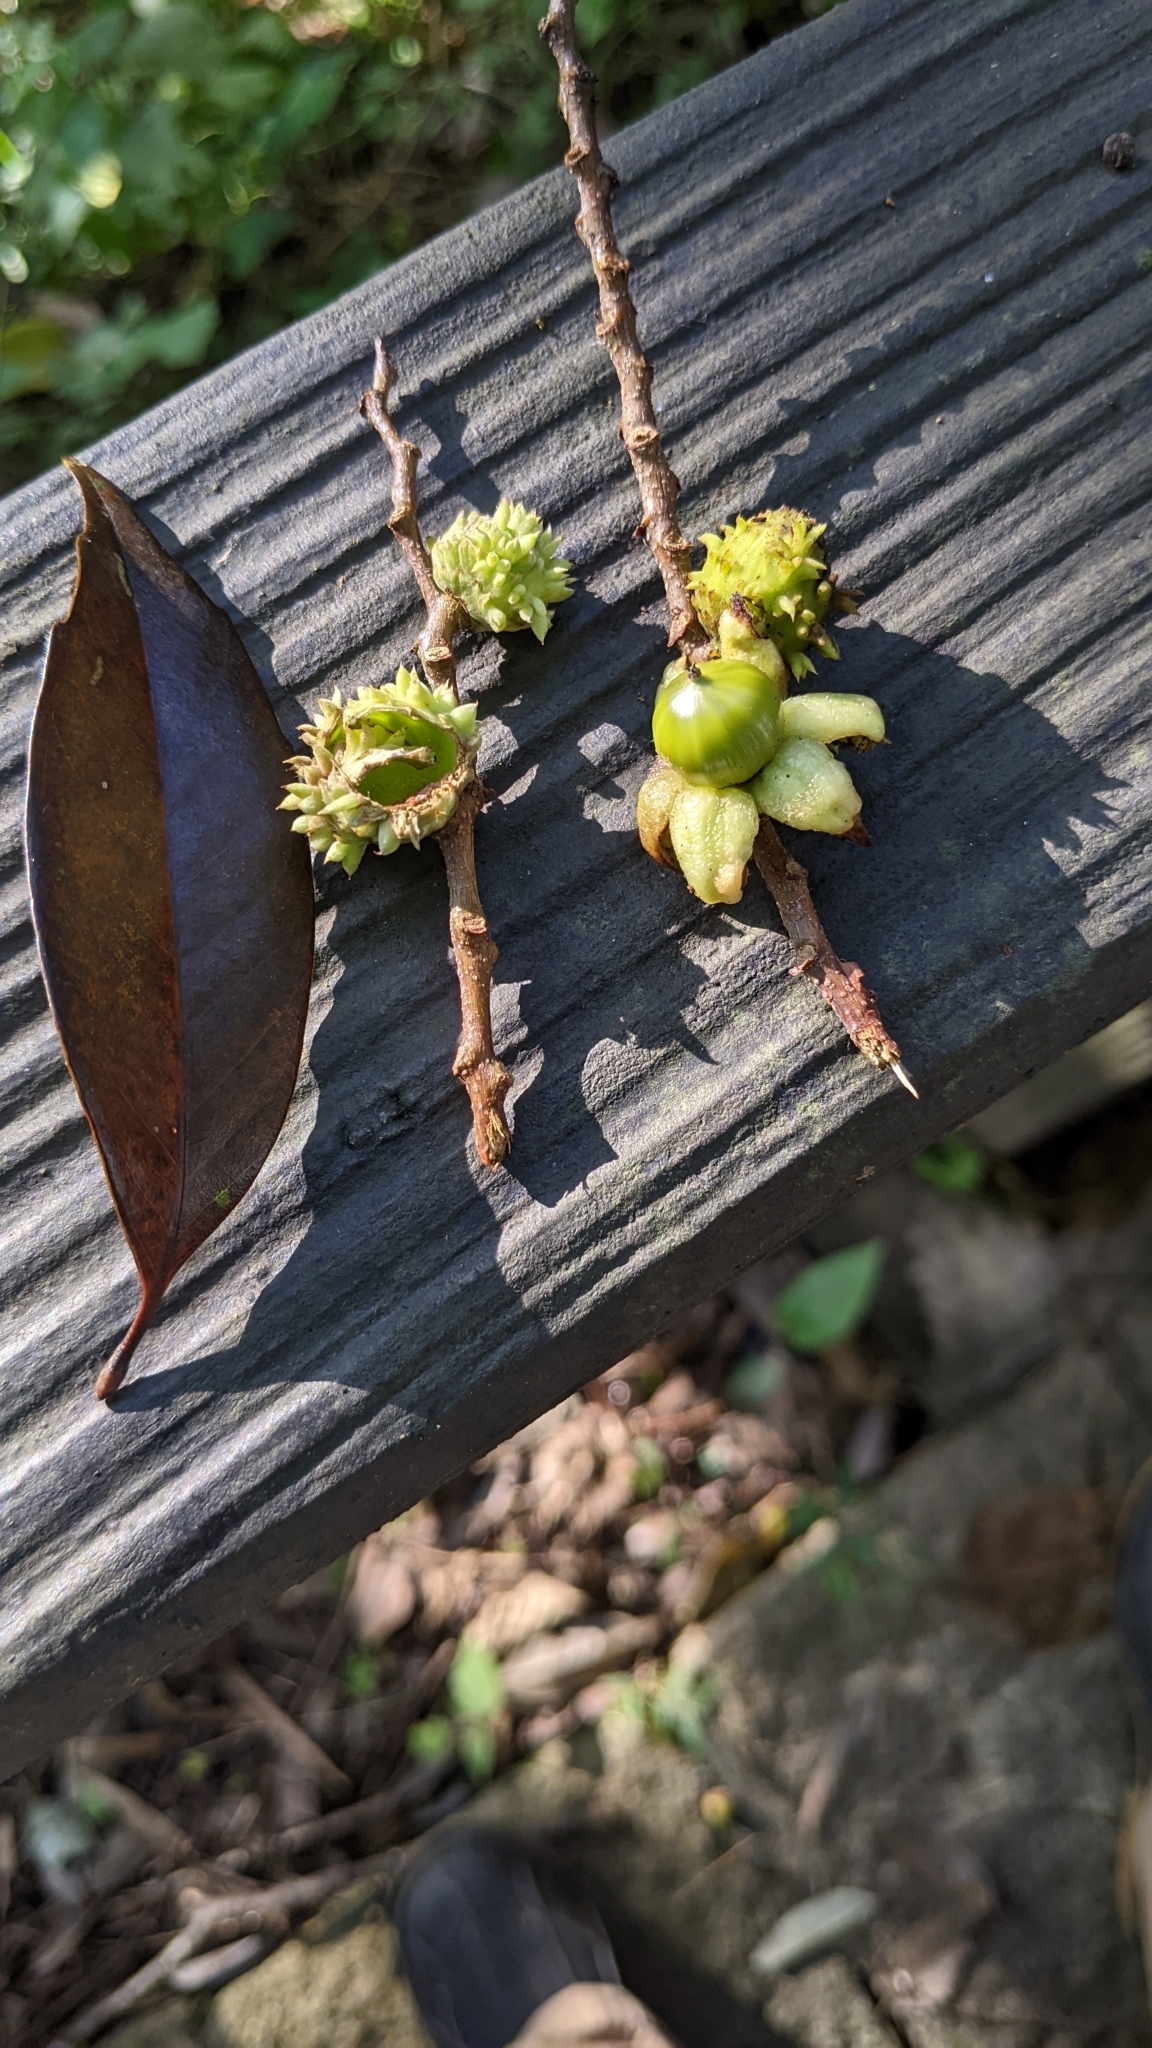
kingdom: Plantae
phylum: Tracheophyta
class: Magnoliopsida
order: Fagales
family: Fagaceae
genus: Castanopsis
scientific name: Castanopsis carlesii
